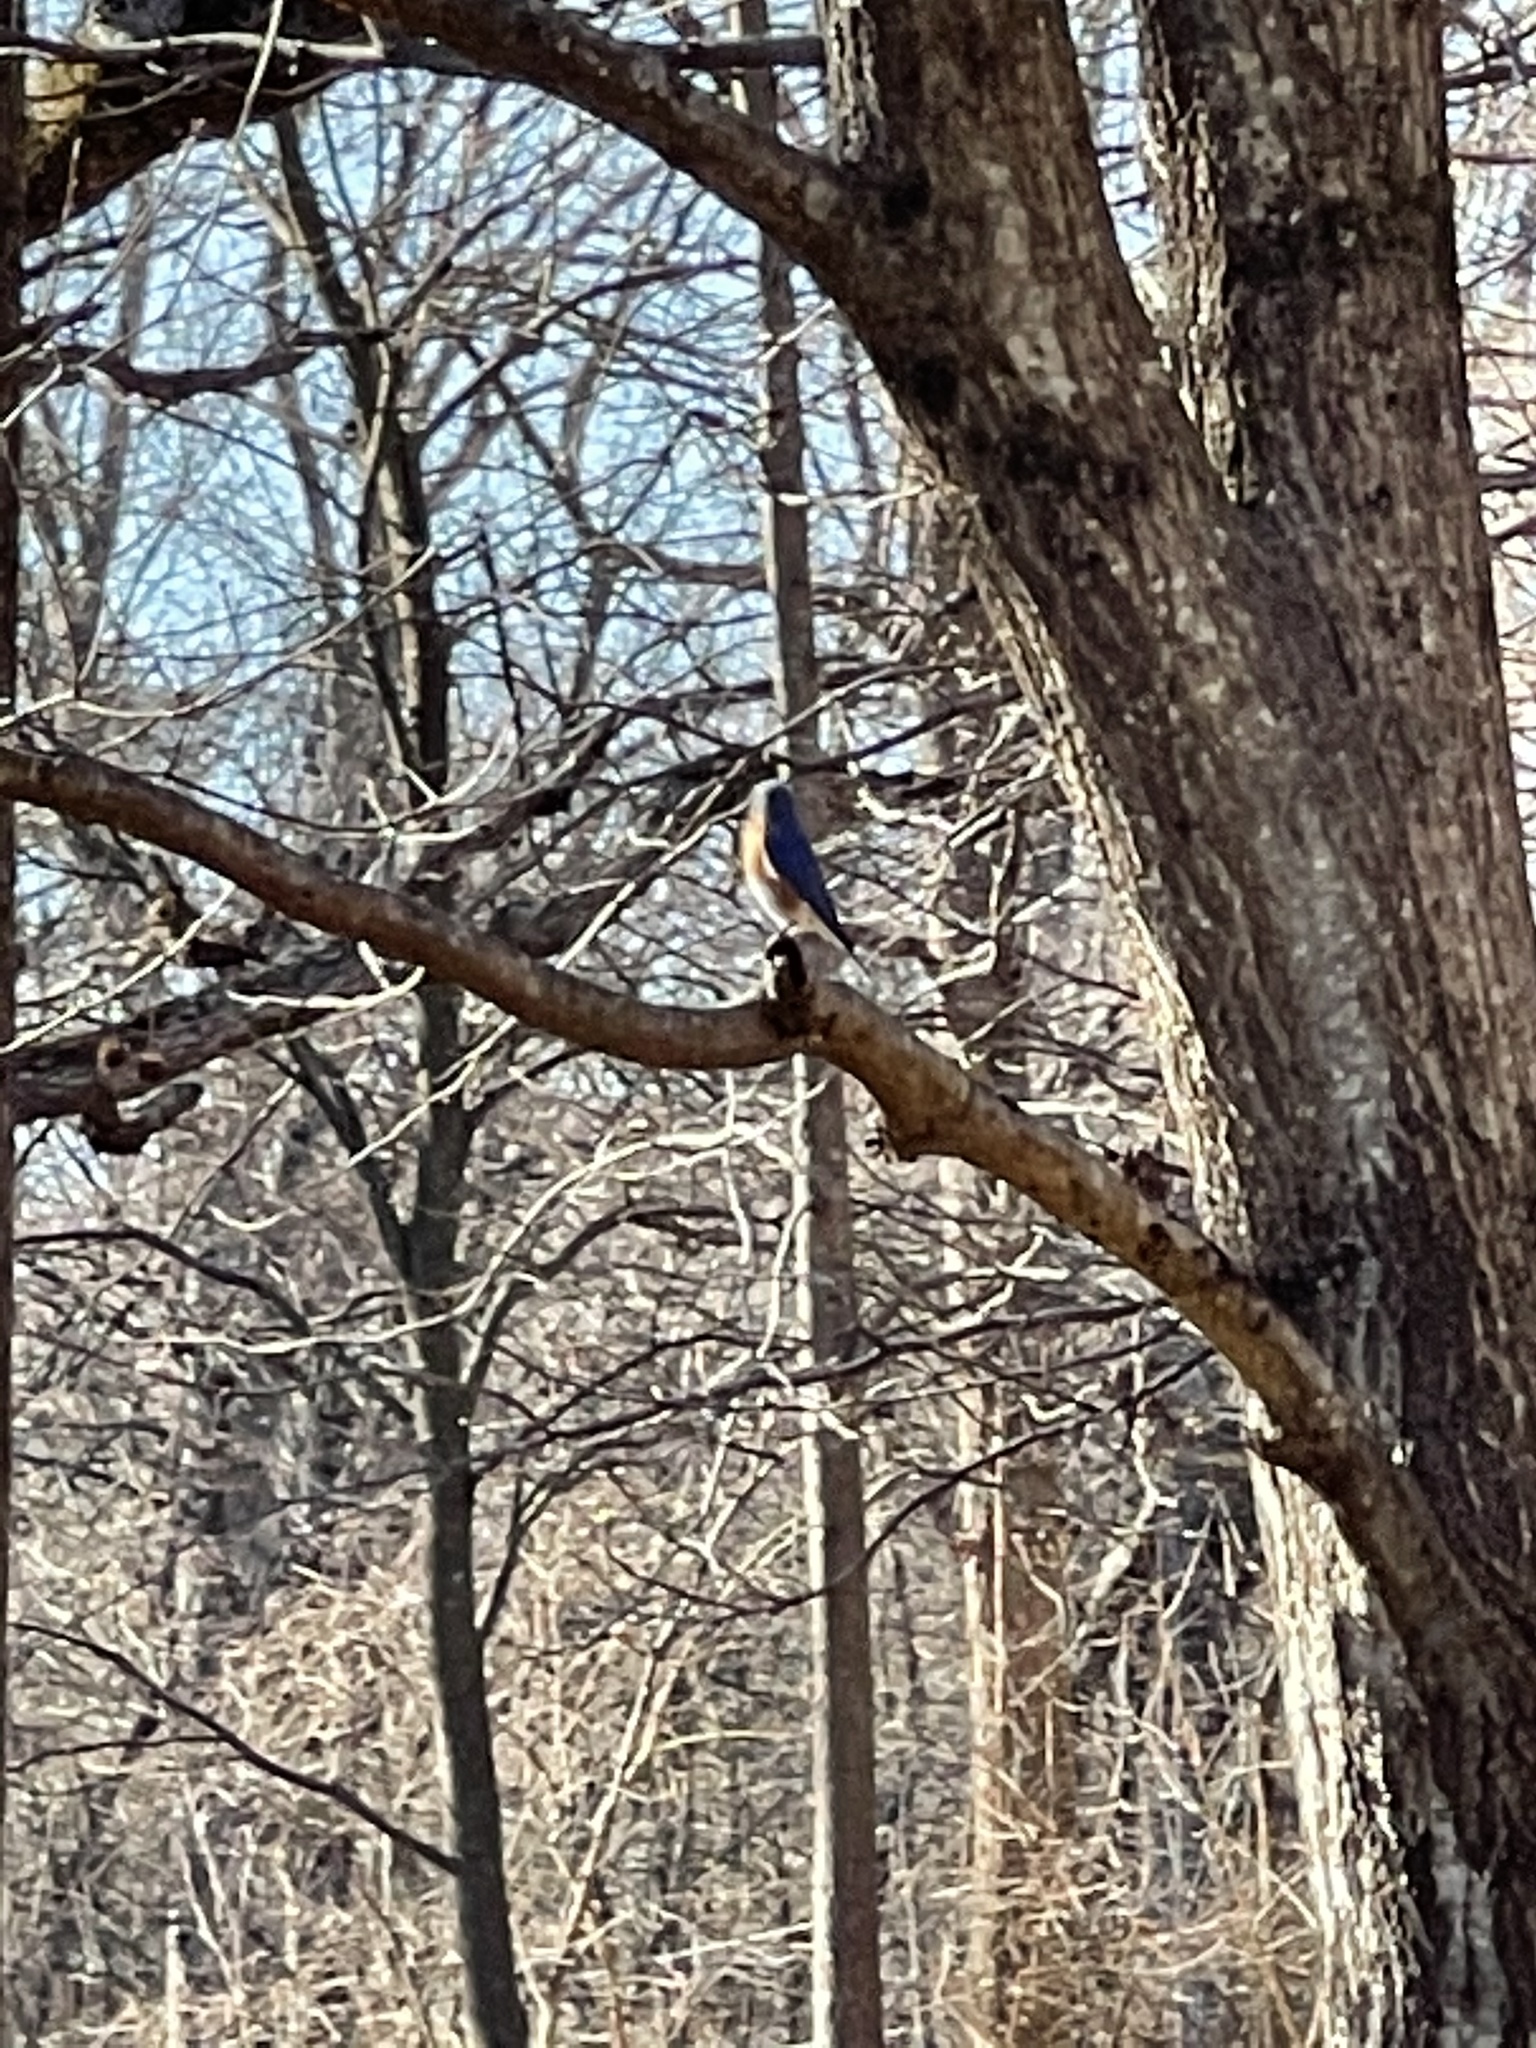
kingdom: Animalia
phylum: Chordata
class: Aves
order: Passeriformes
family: Turdidae
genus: Sialia
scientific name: Sialia sialis
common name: Eastern bluebird
